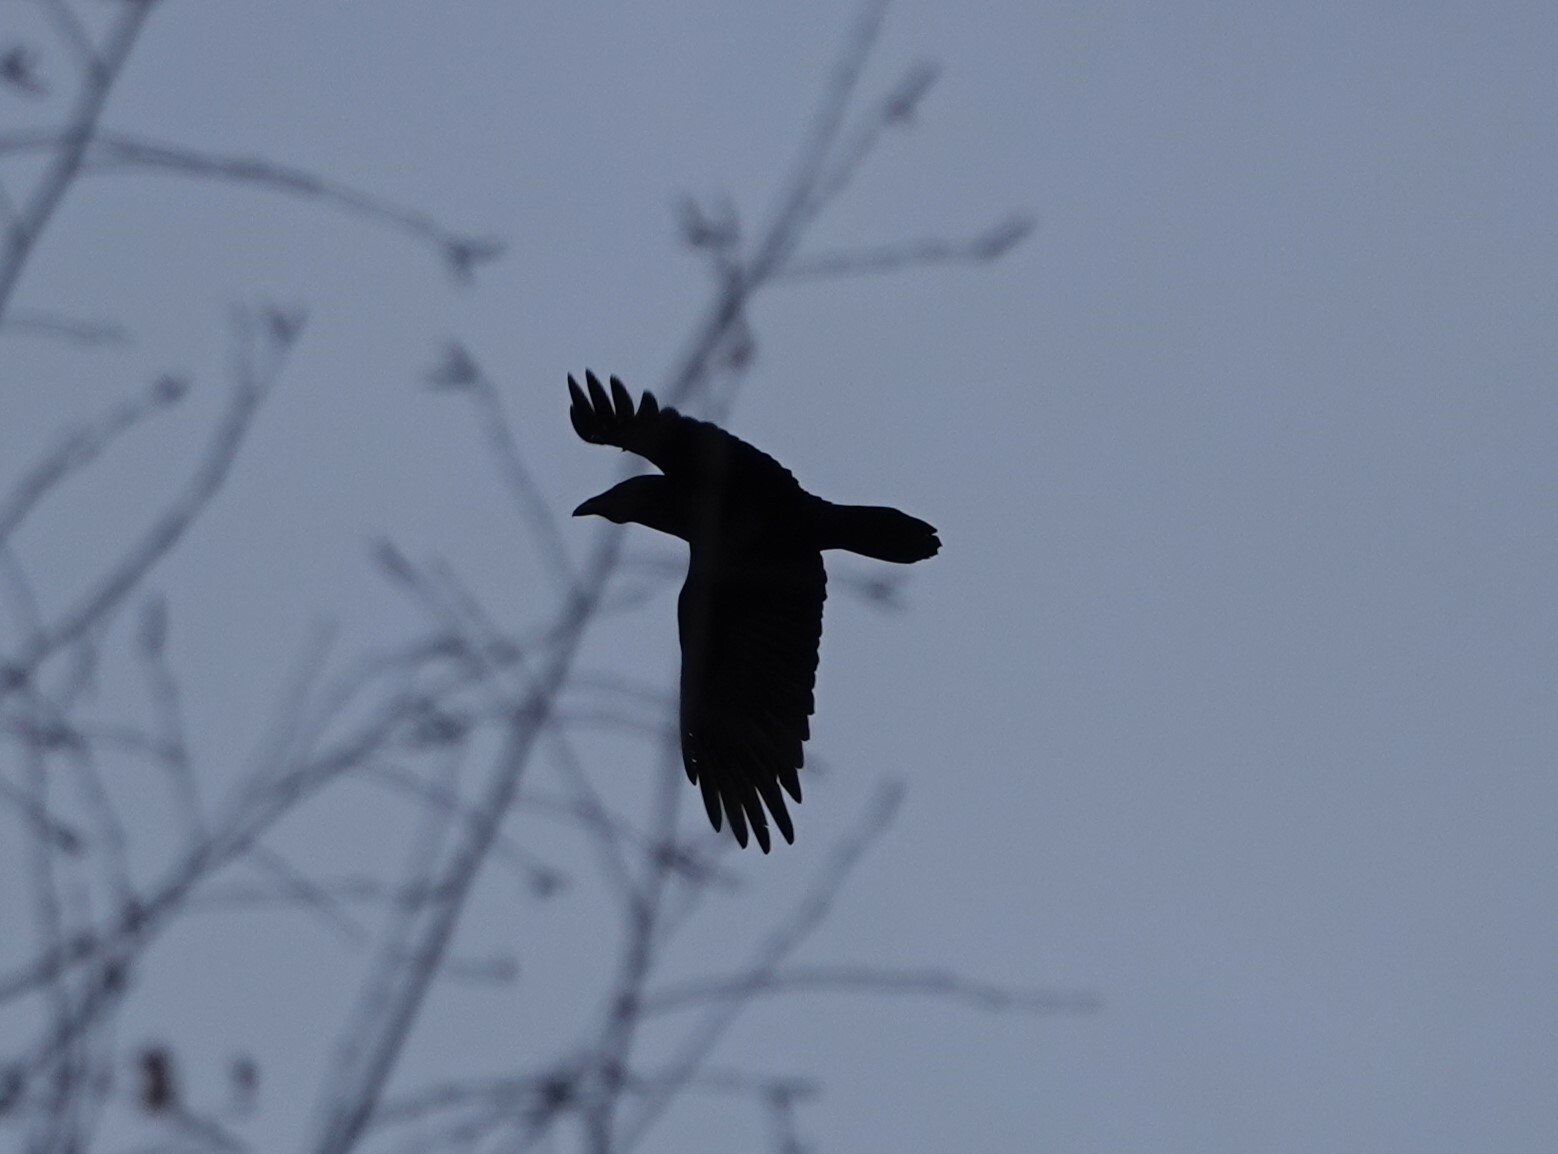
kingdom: Animalia
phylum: Chordata
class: Aves
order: Passeriformes
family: Corvidae
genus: Corvus
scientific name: Corvus corax
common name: Common raven
